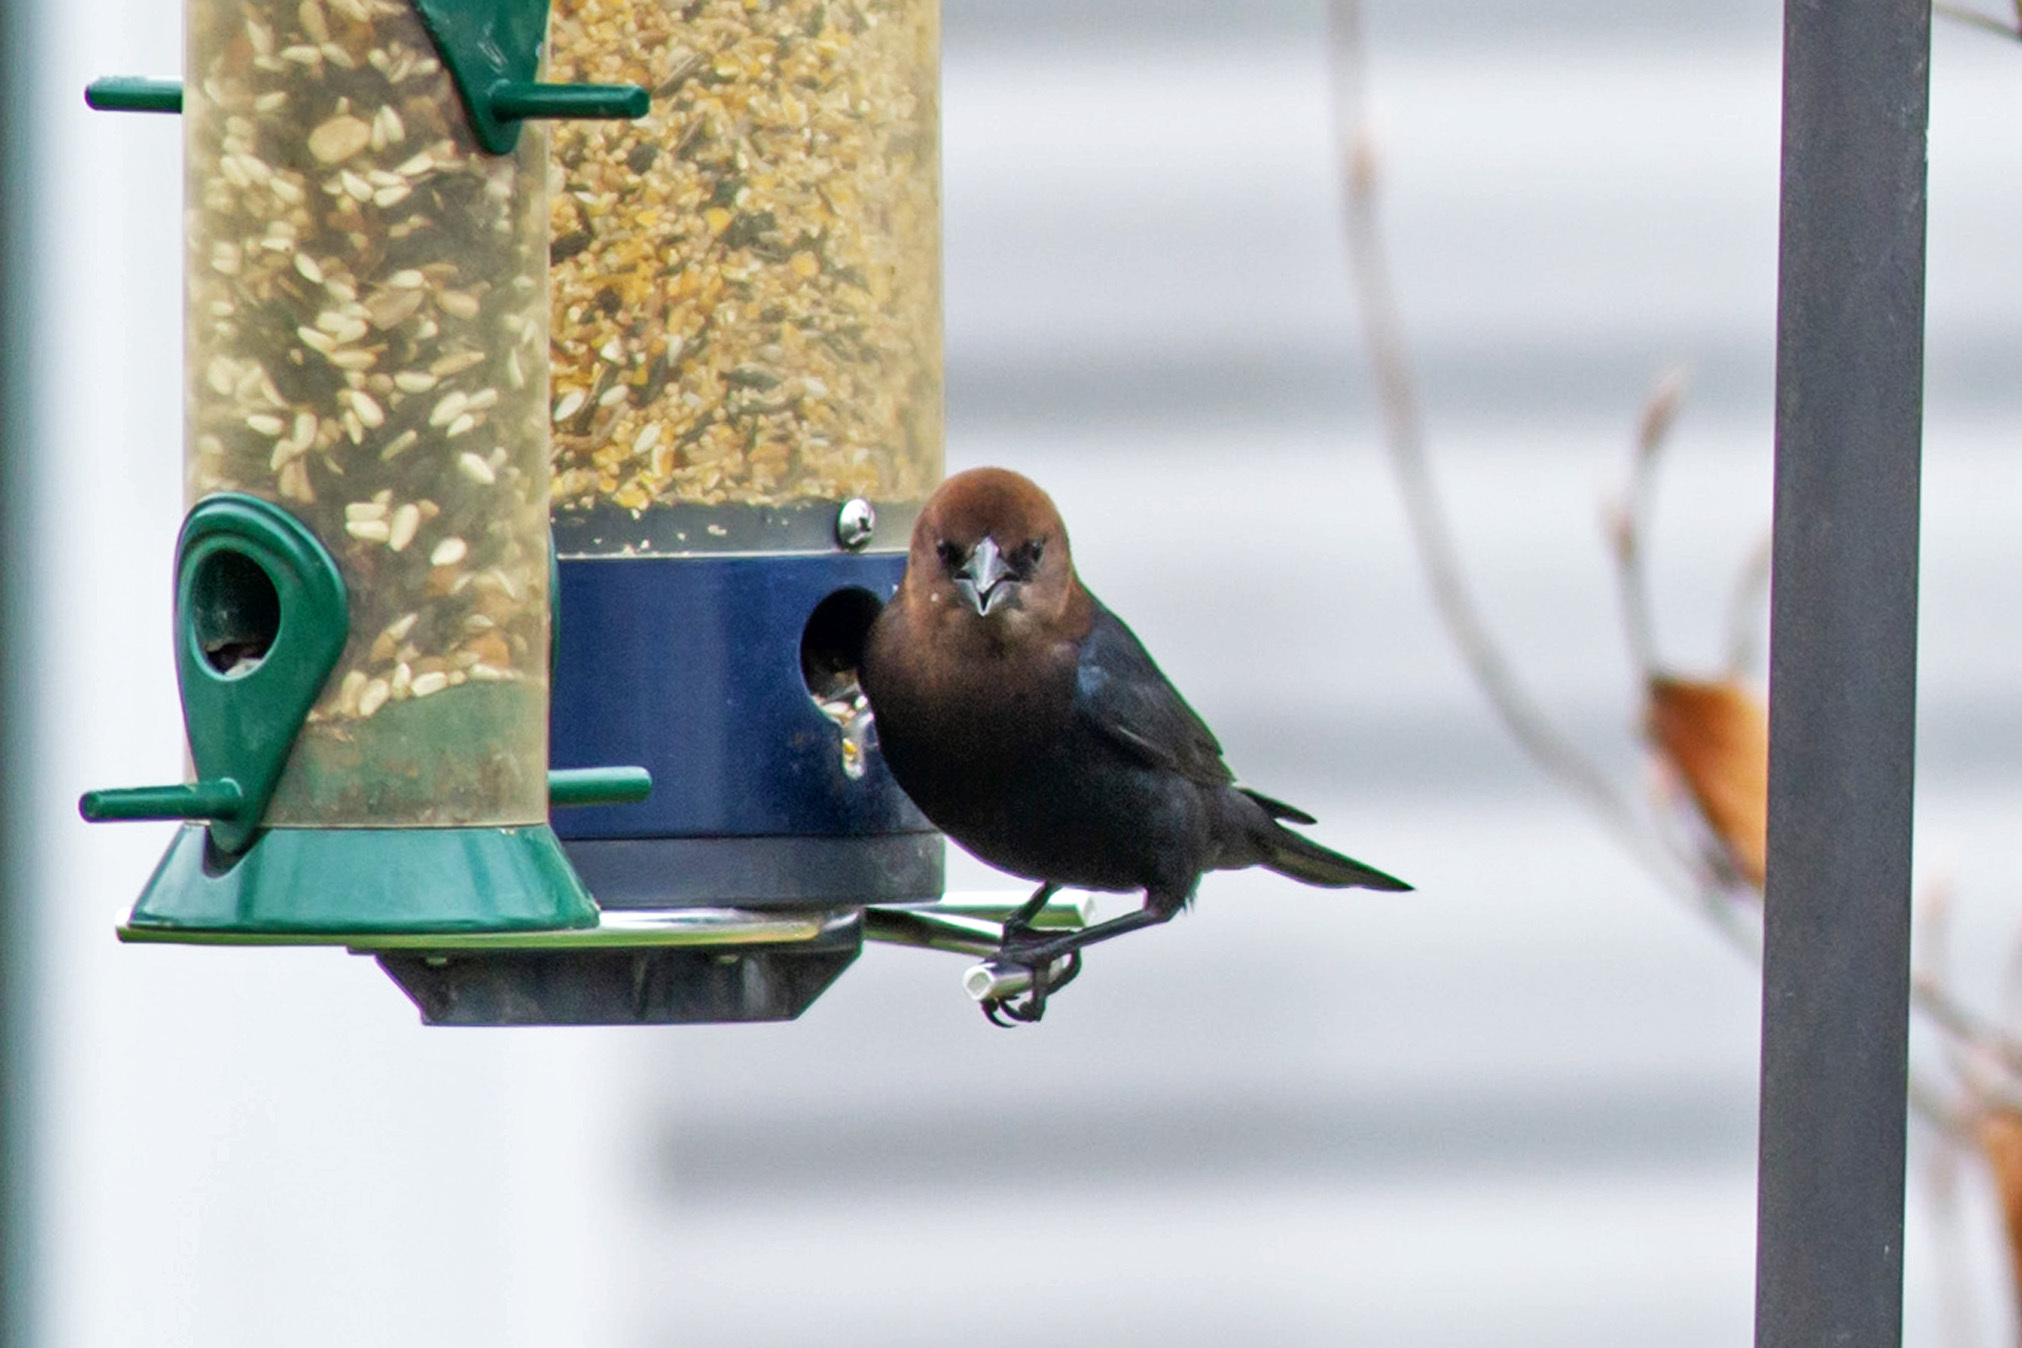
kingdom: Animalia
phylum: Chordata
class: Aves
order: Passeriformes
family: Icteridae
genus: Molothrus
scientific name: Molothrus ater
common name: Brown-headed cowbird
